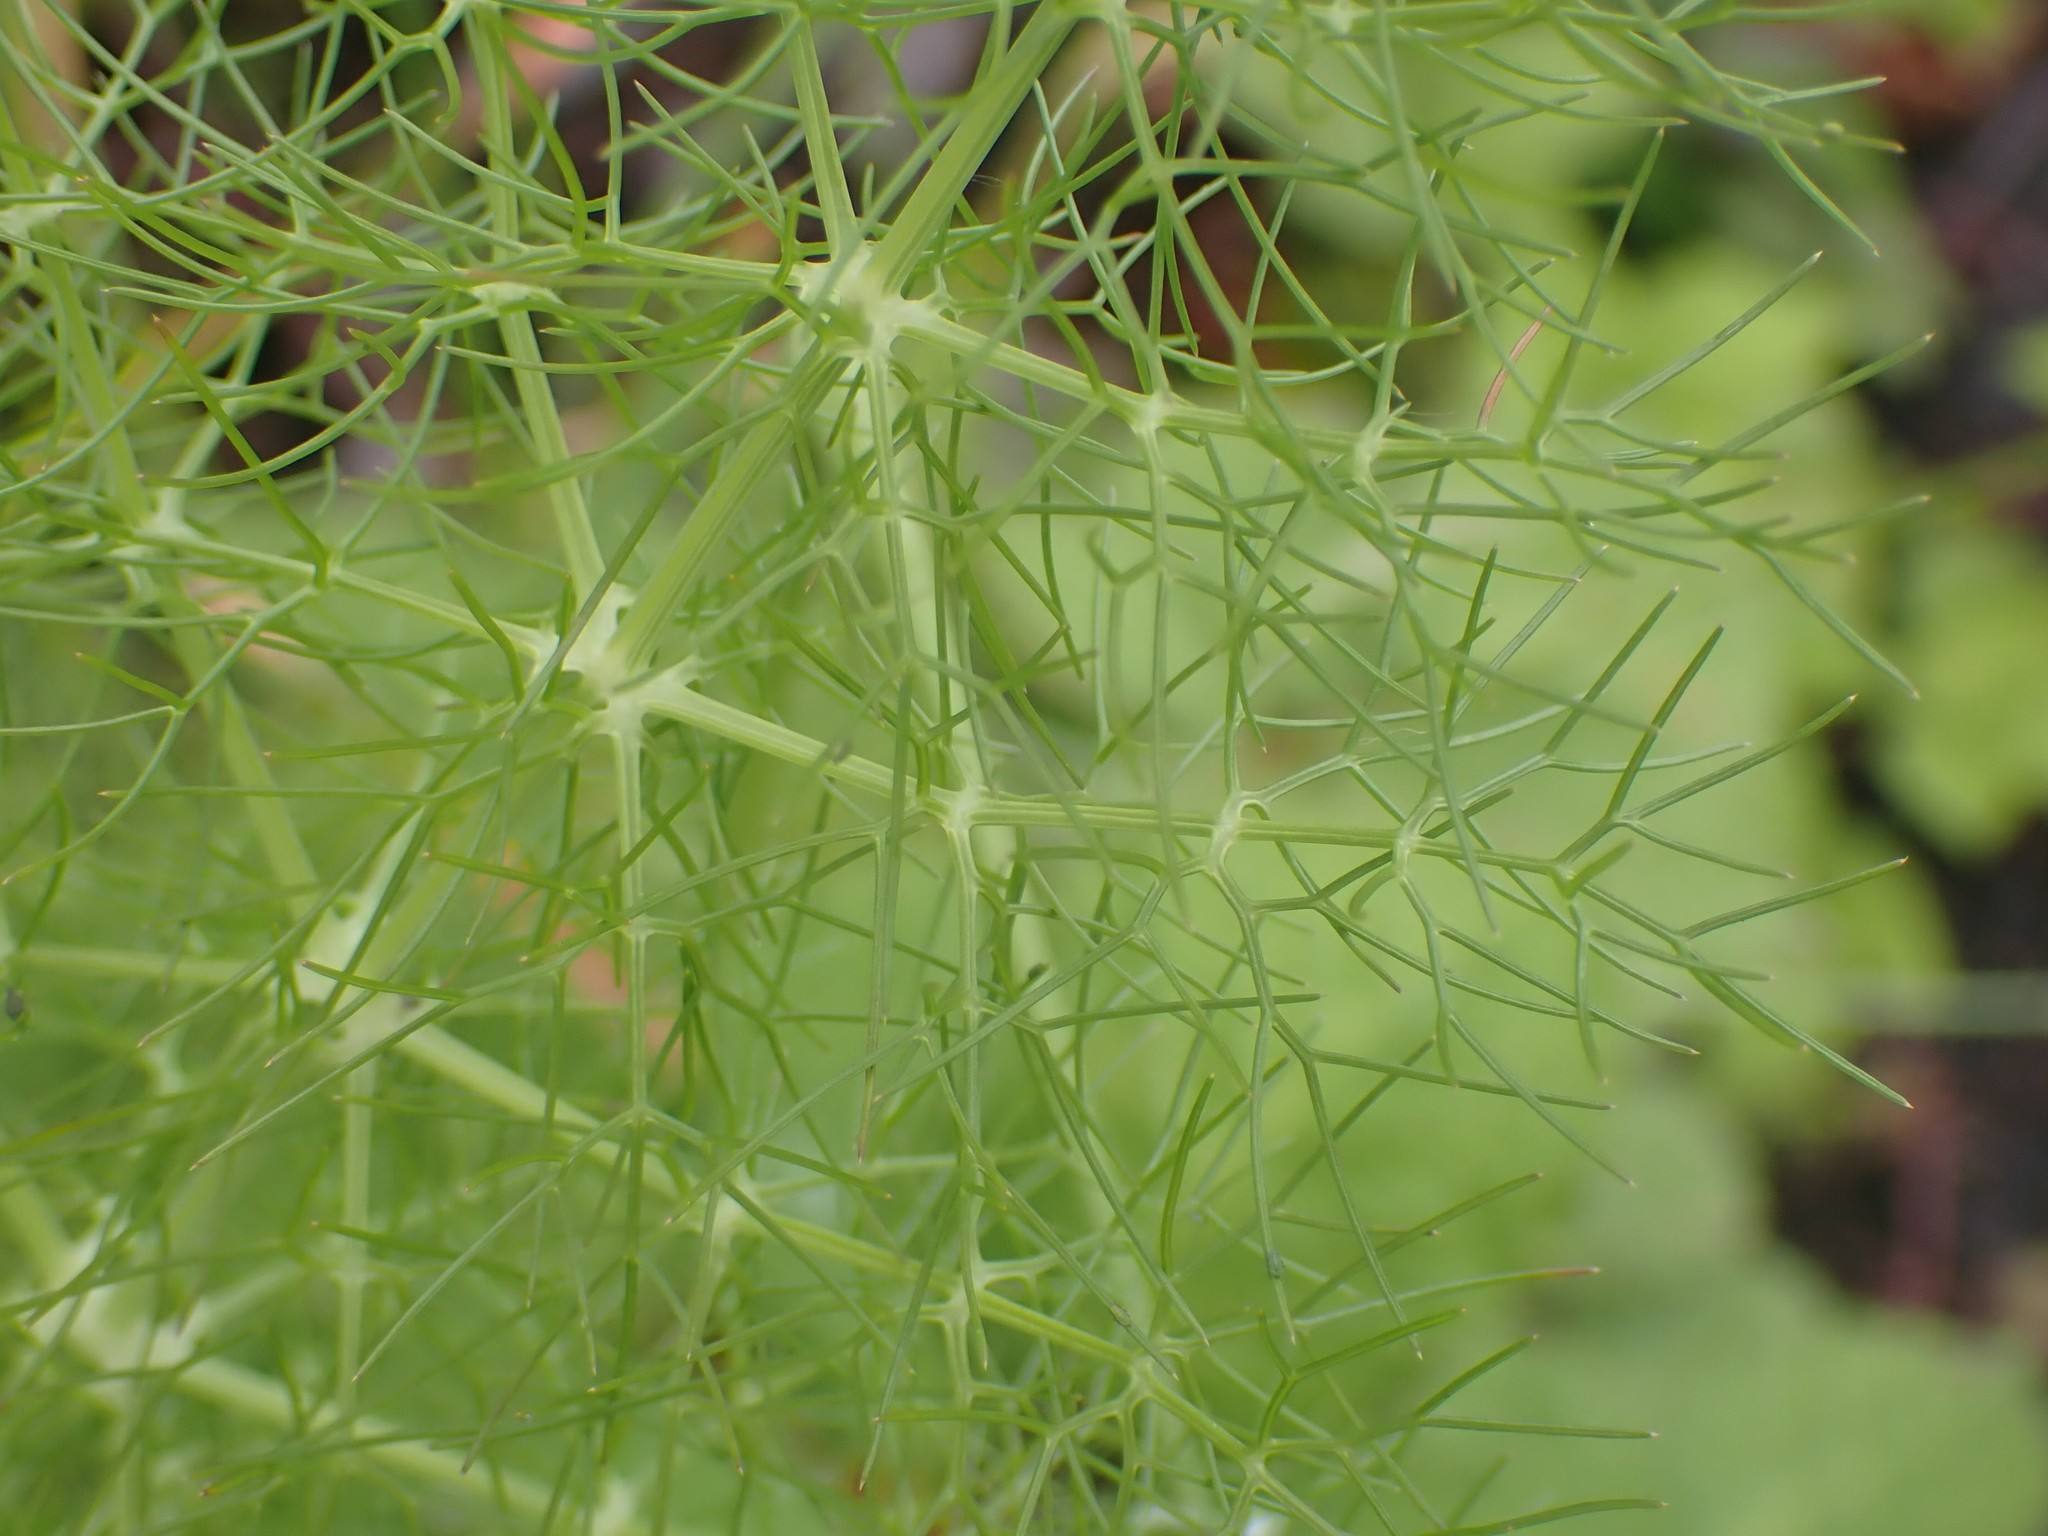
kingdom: Plantae
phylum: Tracheophyta
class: Magnoliopsida
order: Apiales
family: Apiaceae
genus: Foeniculum
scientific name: Foeniculum vulgare
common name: Fennel
